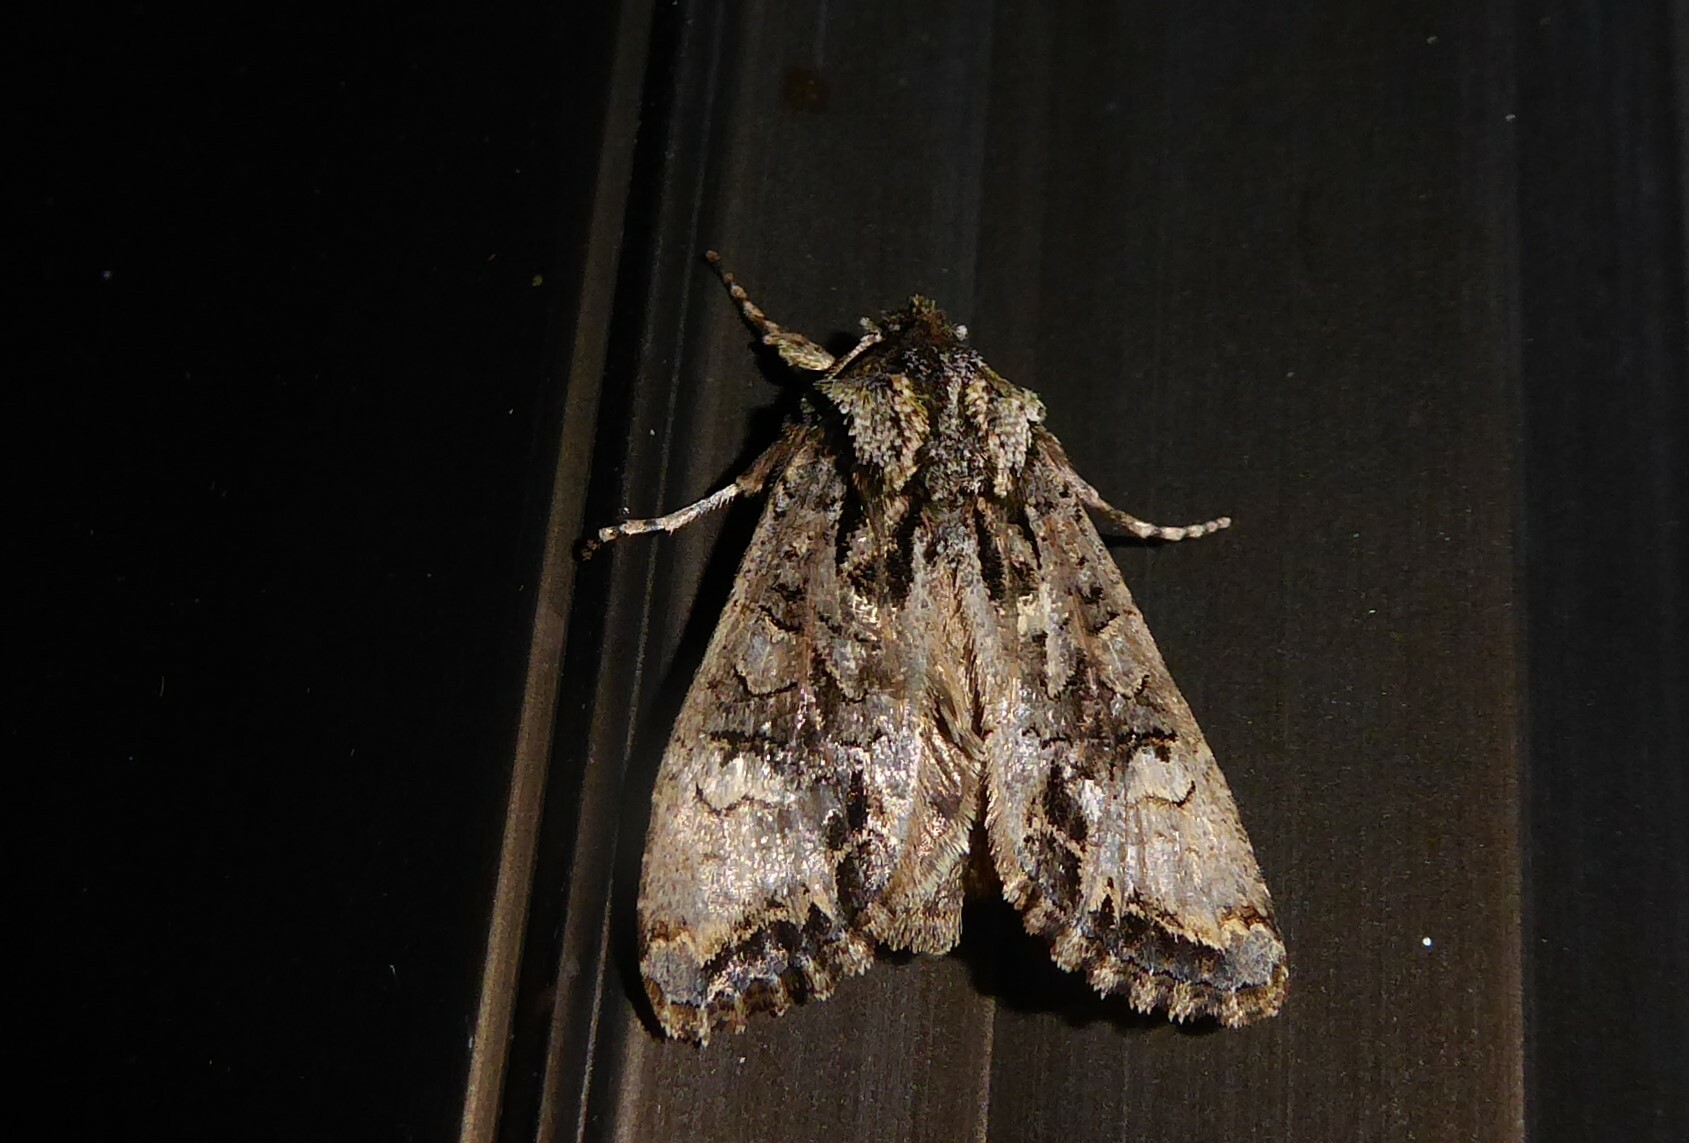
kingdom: Animalia
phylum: Arthropoda
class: Insecta
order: Lepidoptera
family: Noctuidae
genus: Ichneutica
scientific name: Ichneutica insignis
